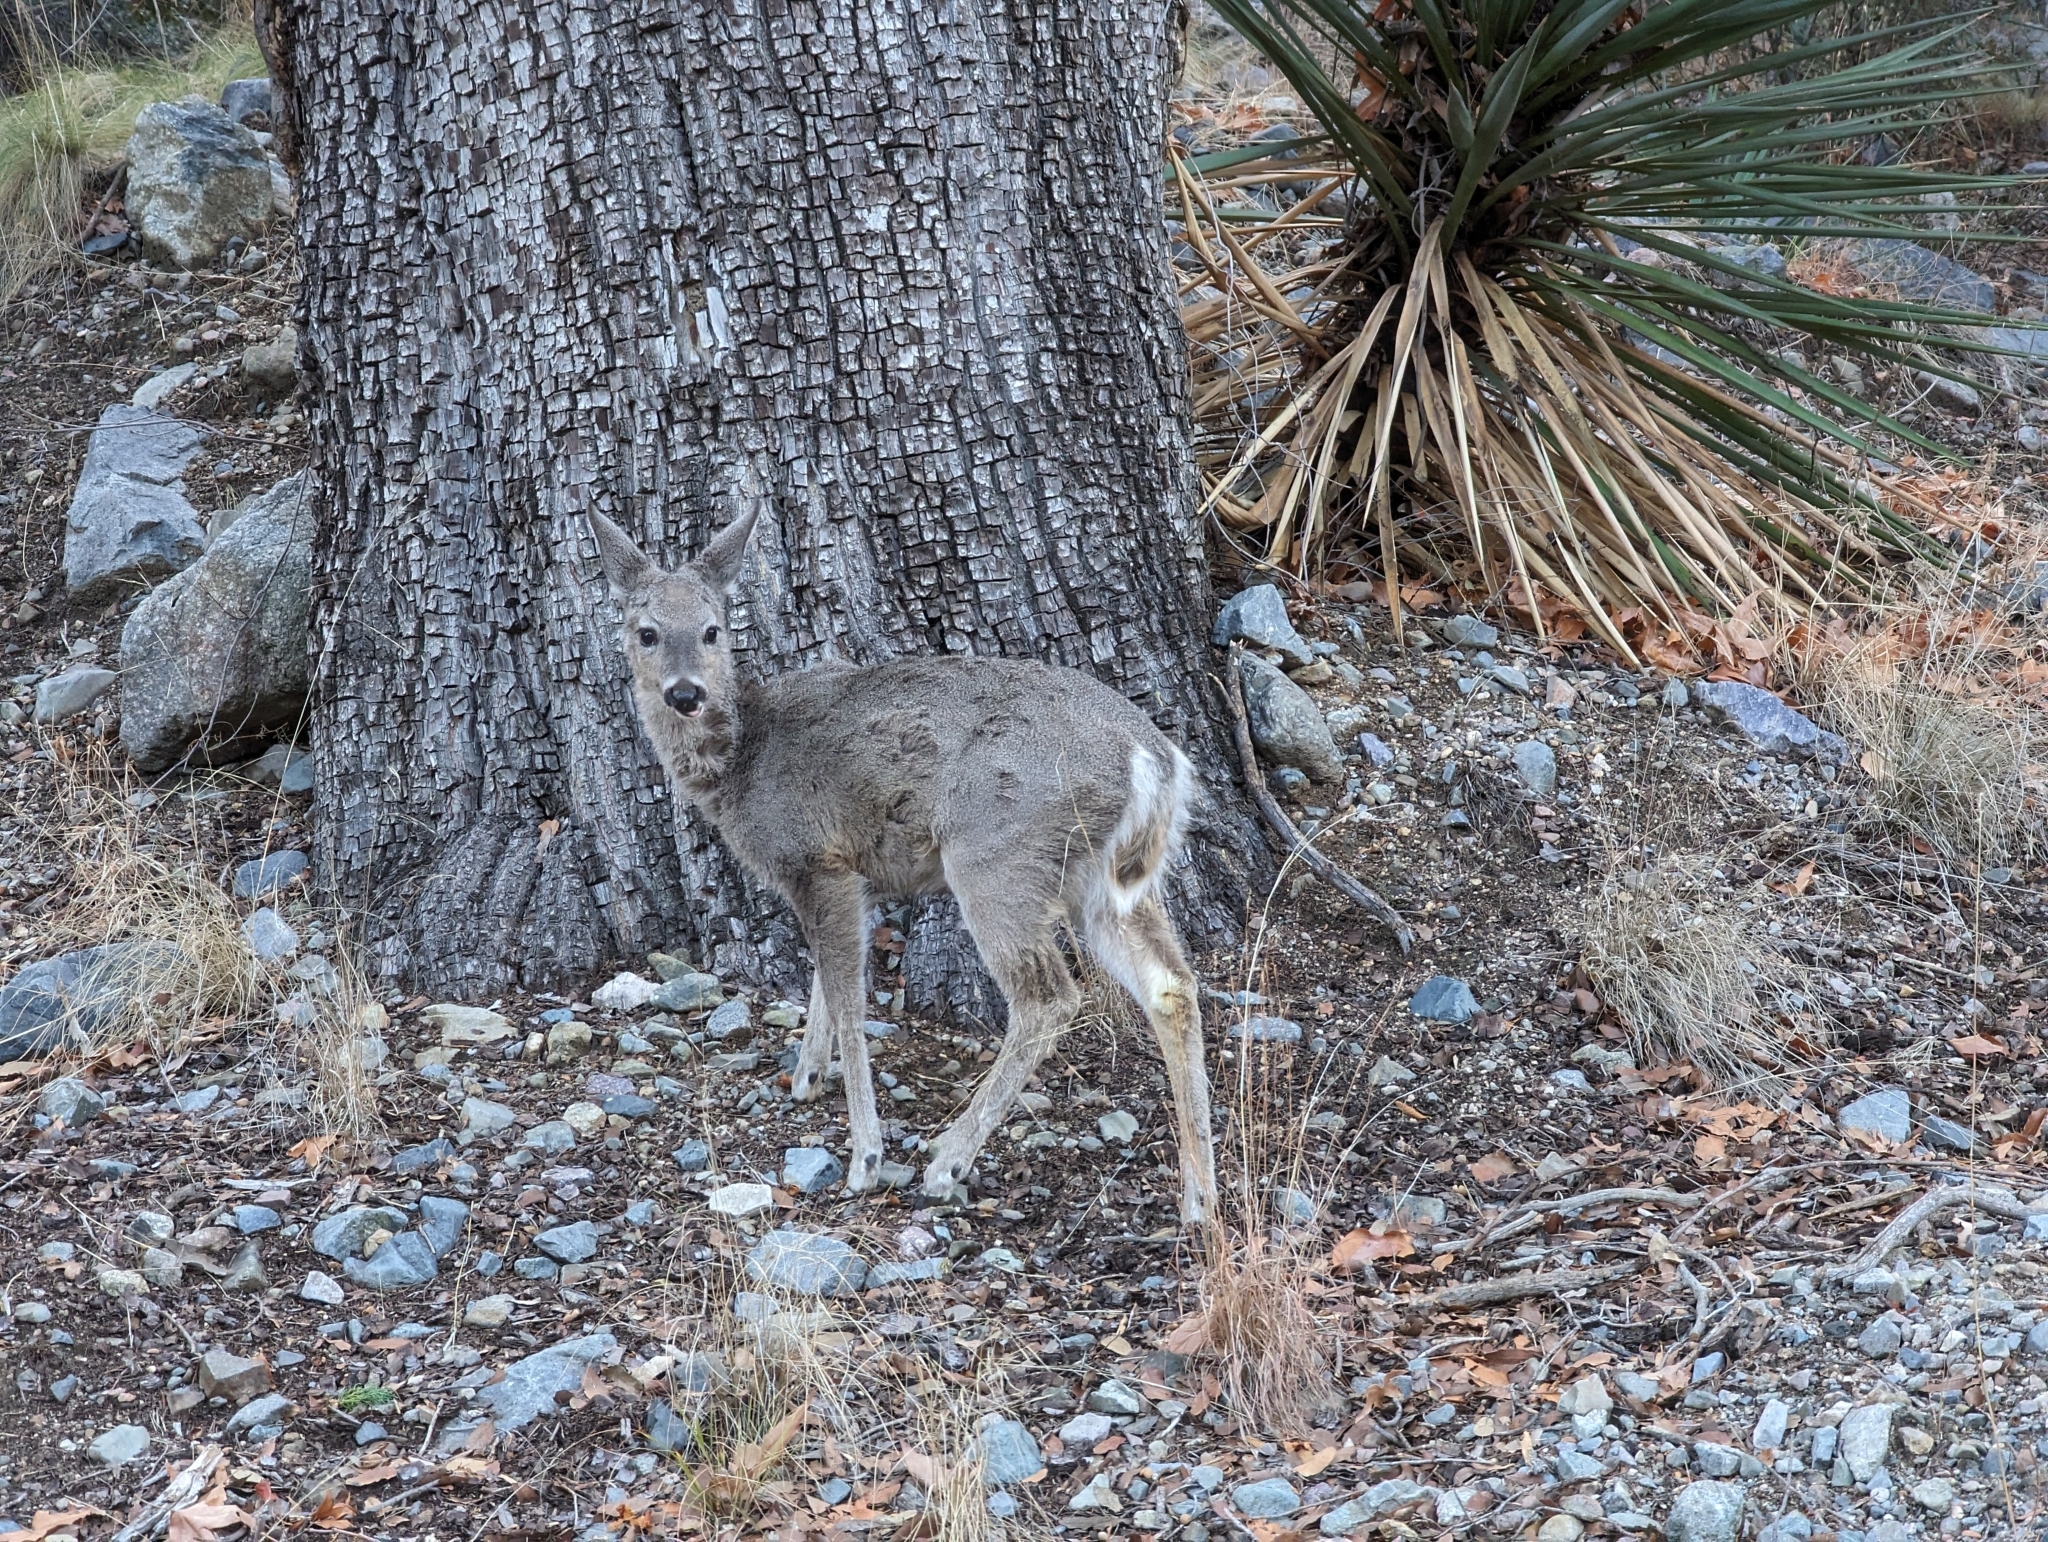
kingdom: Animalia
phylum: Chordata
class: Mammalia
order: Artiodactyla
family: Cervidae
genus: Odocoileus
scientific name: Odocoileus virginianus
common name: White-tailed deer
